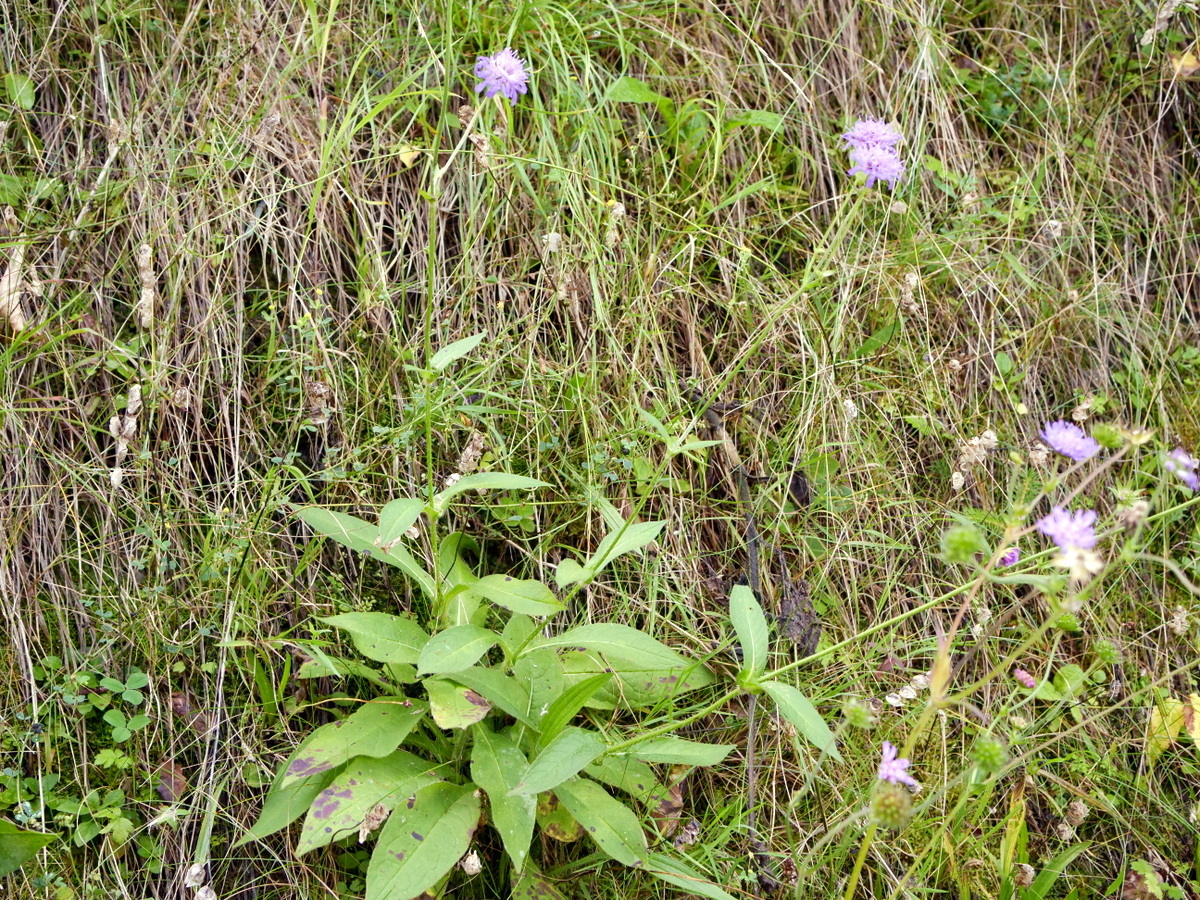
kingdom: Plantae
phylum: Tracheophyta
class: Magnoliopsida
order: Dipsacales
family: Caprifoliaceae
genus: Knautia
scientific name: Knautia dipsacifolia
